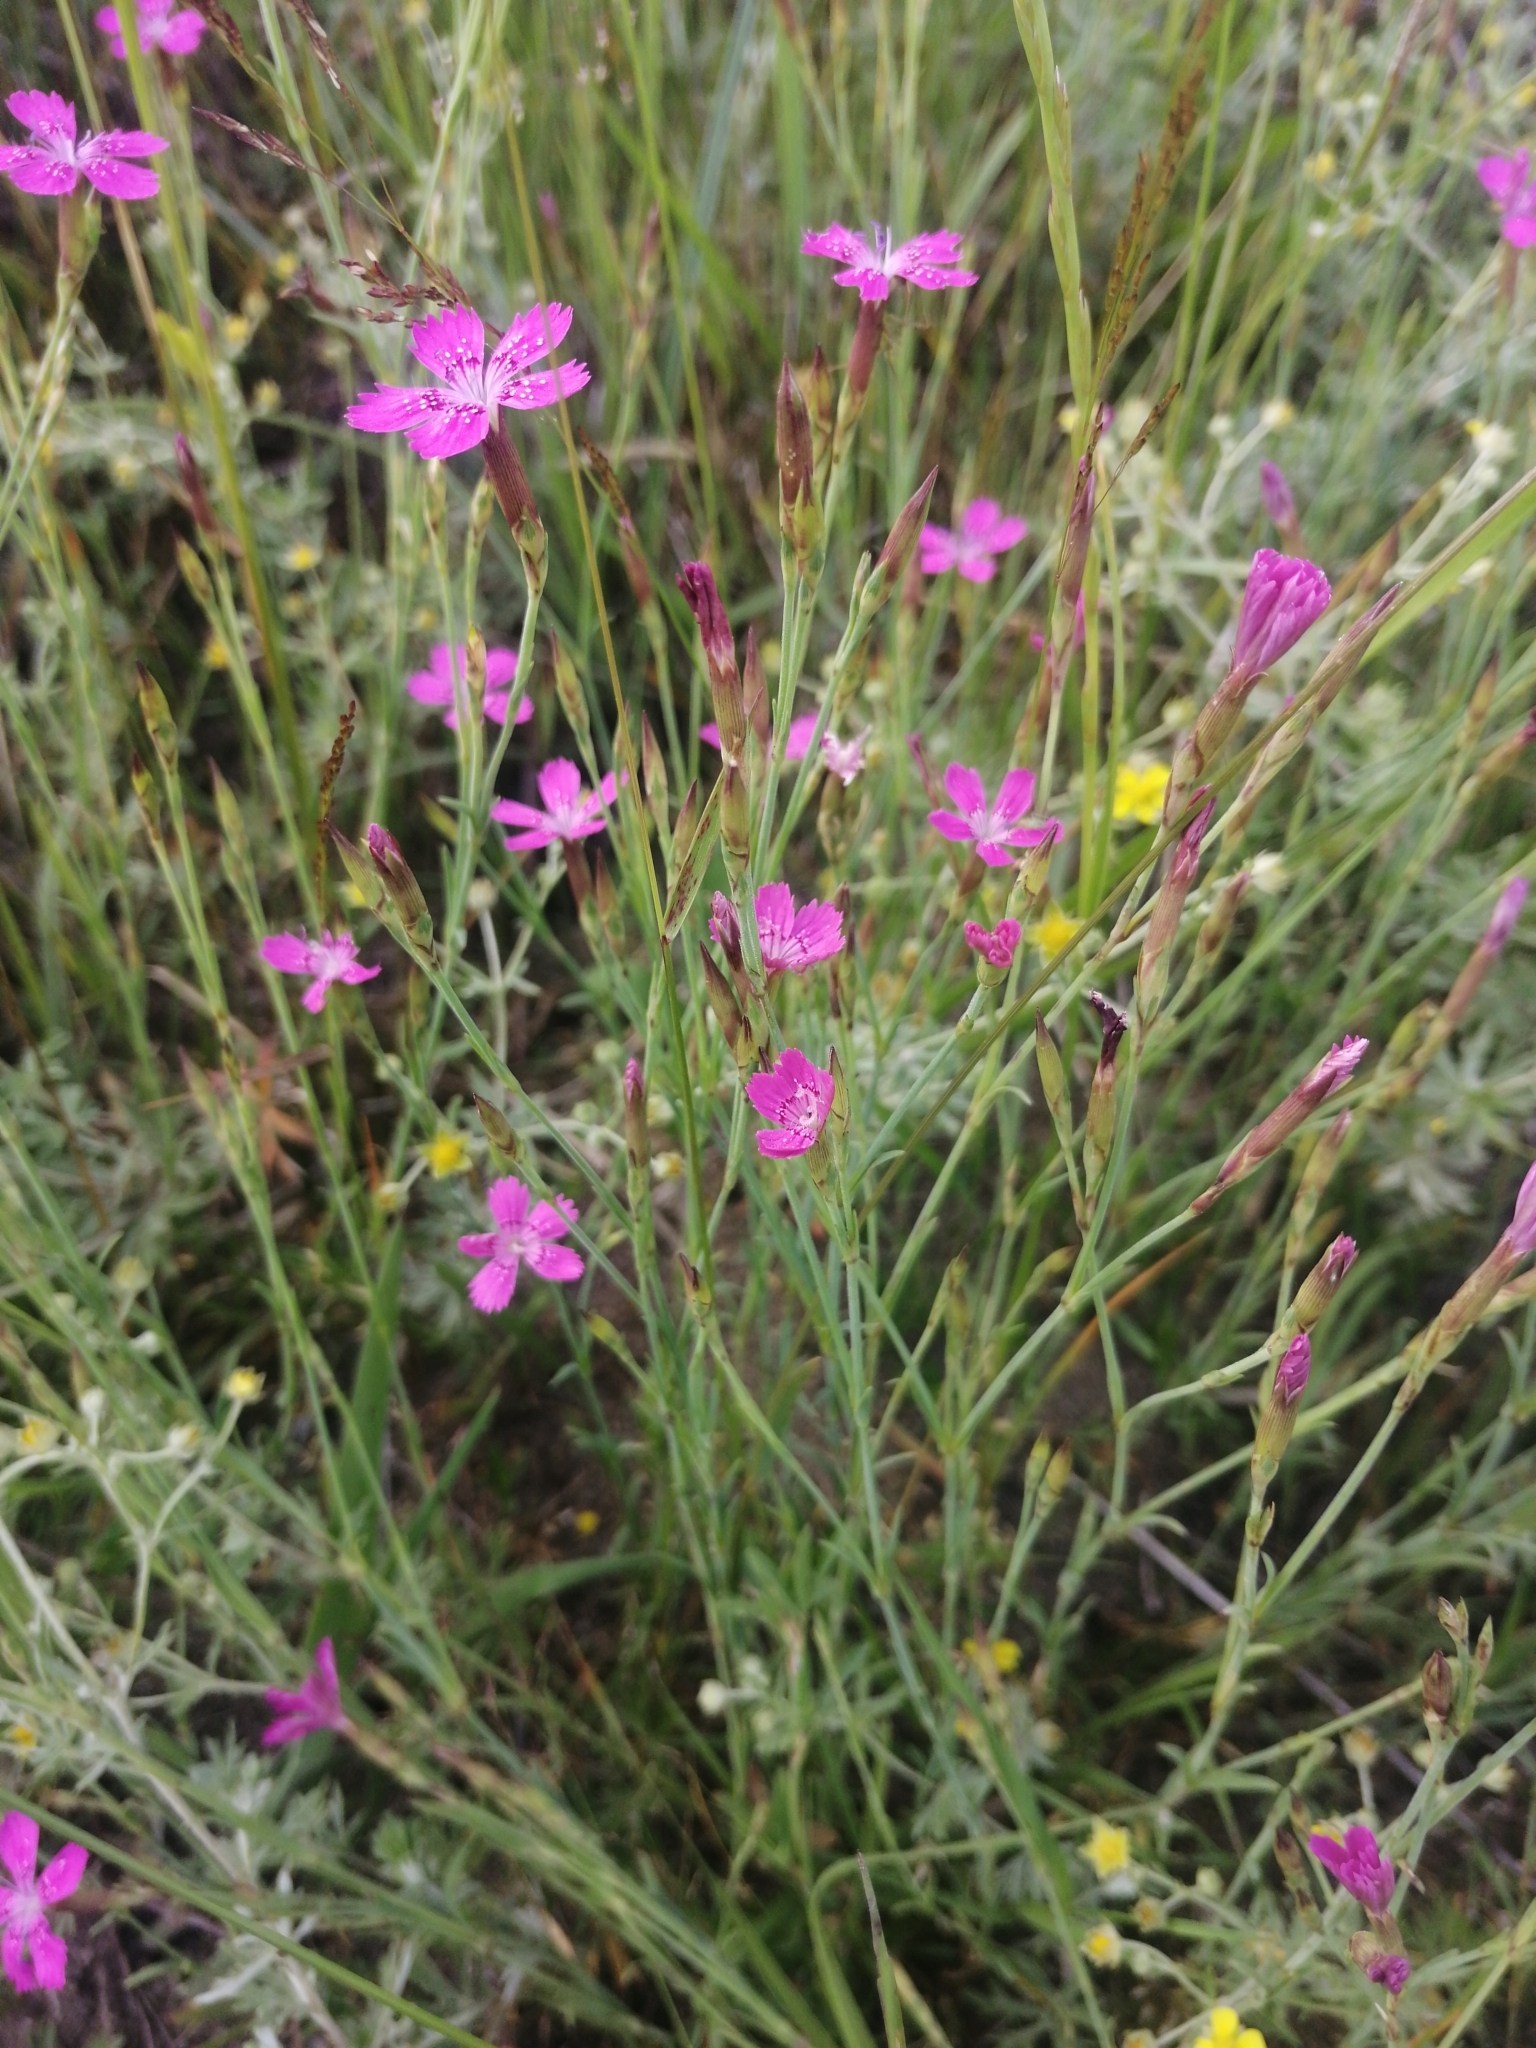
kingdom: Plantae
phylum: Tracheophyta
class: Magnoliopsida
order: Caryophyllales
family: Caryophyllaceae
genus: Dianthus
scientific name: Dianthus deltoides
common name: Maiden pink
